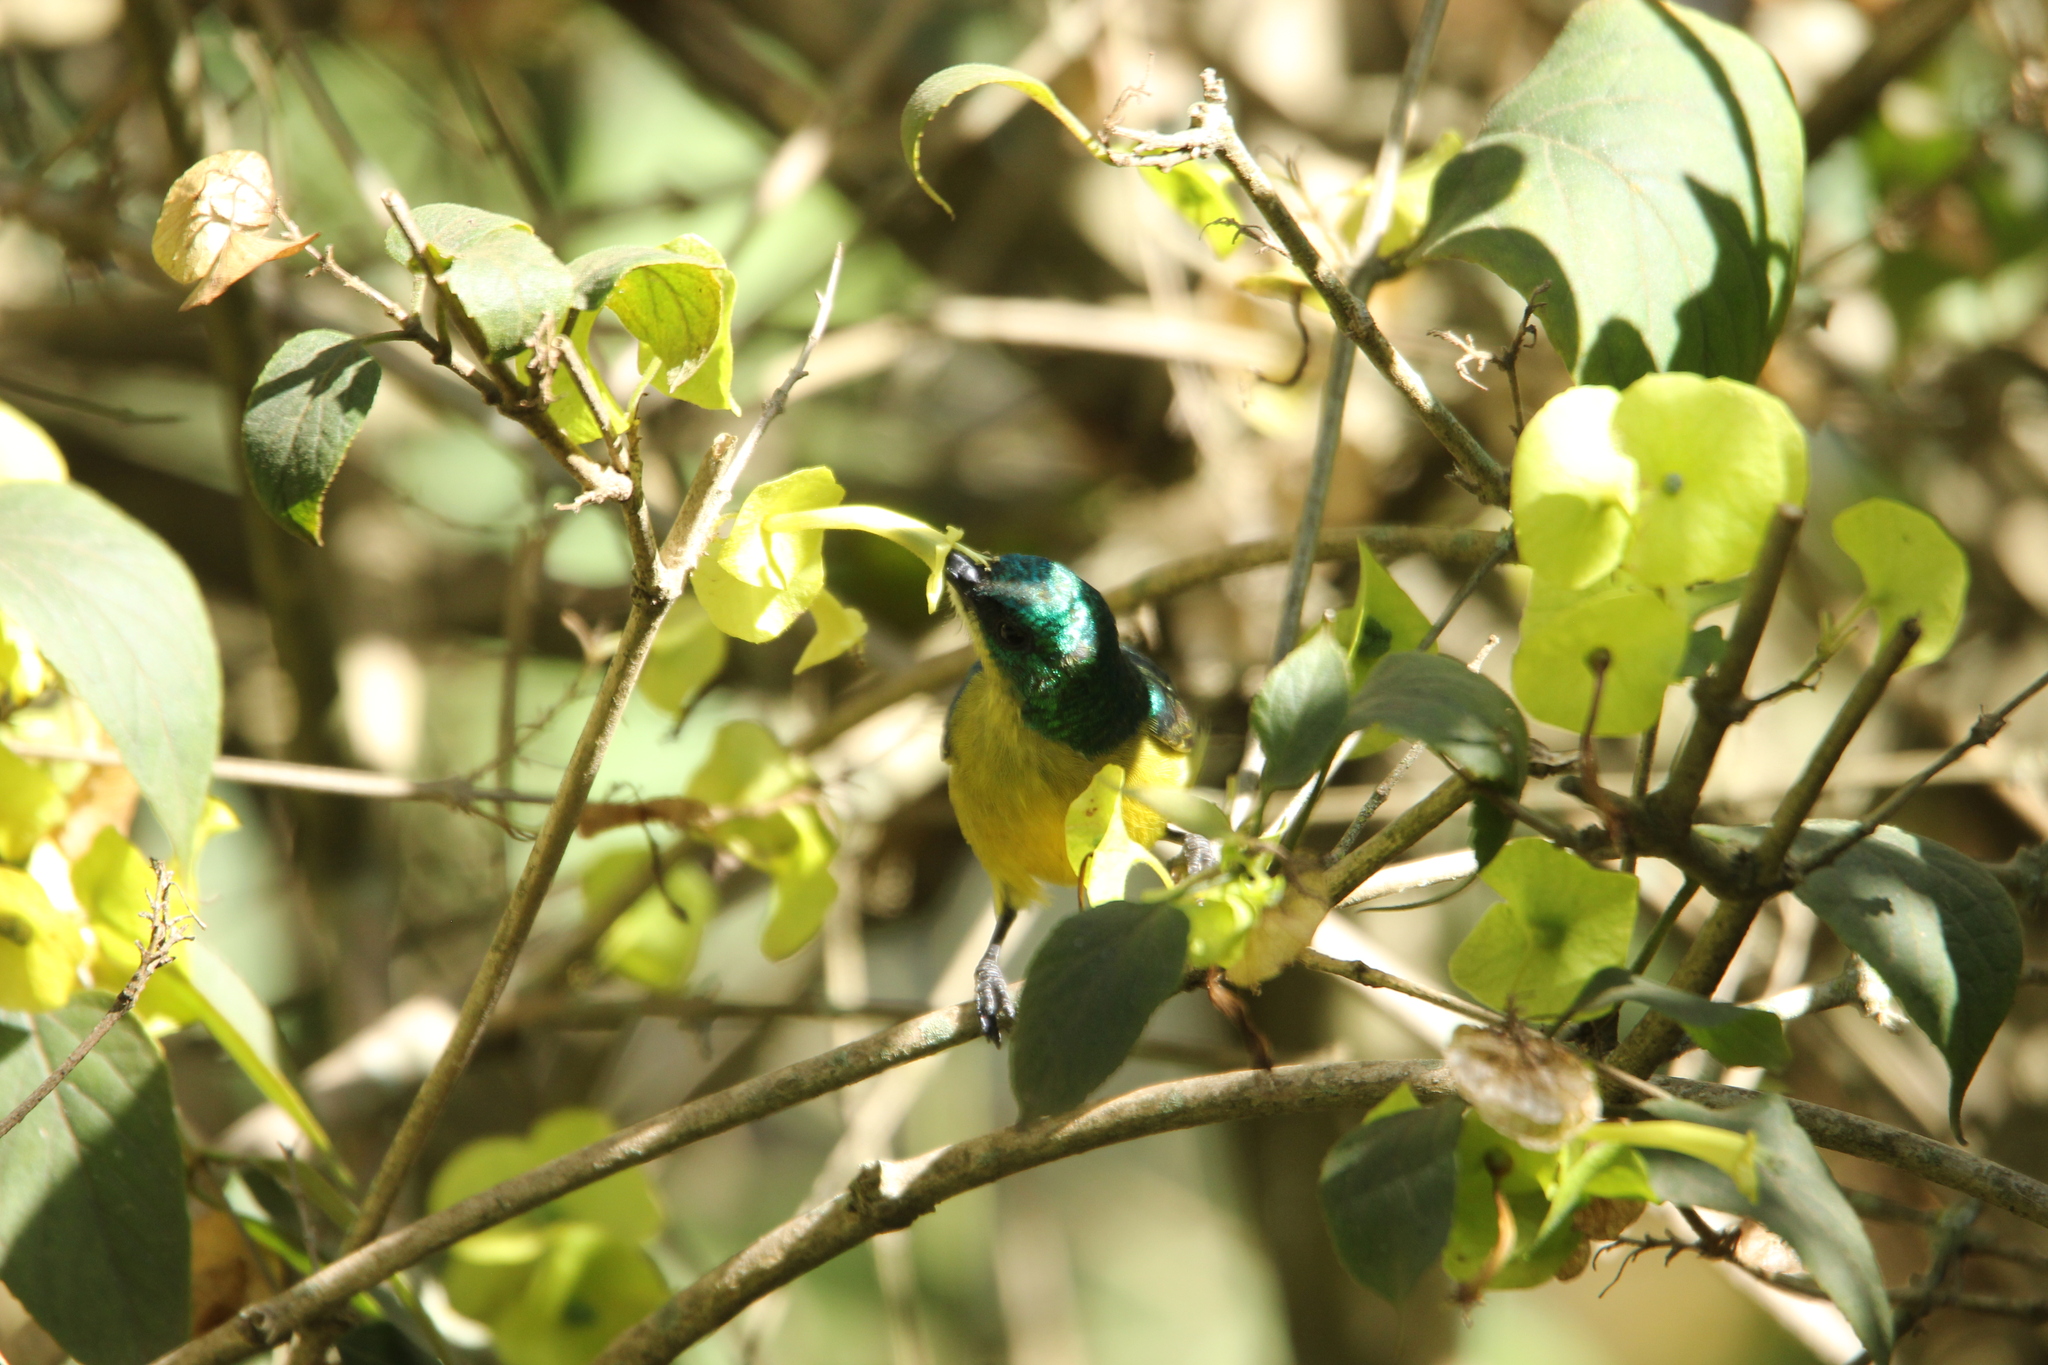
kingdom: Animalia
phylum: Chordata
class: Aves
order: Passeriformes
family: Nectariniidae
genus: Hedydipna
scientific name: Hedydipna collaris
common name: Collared sunbird
